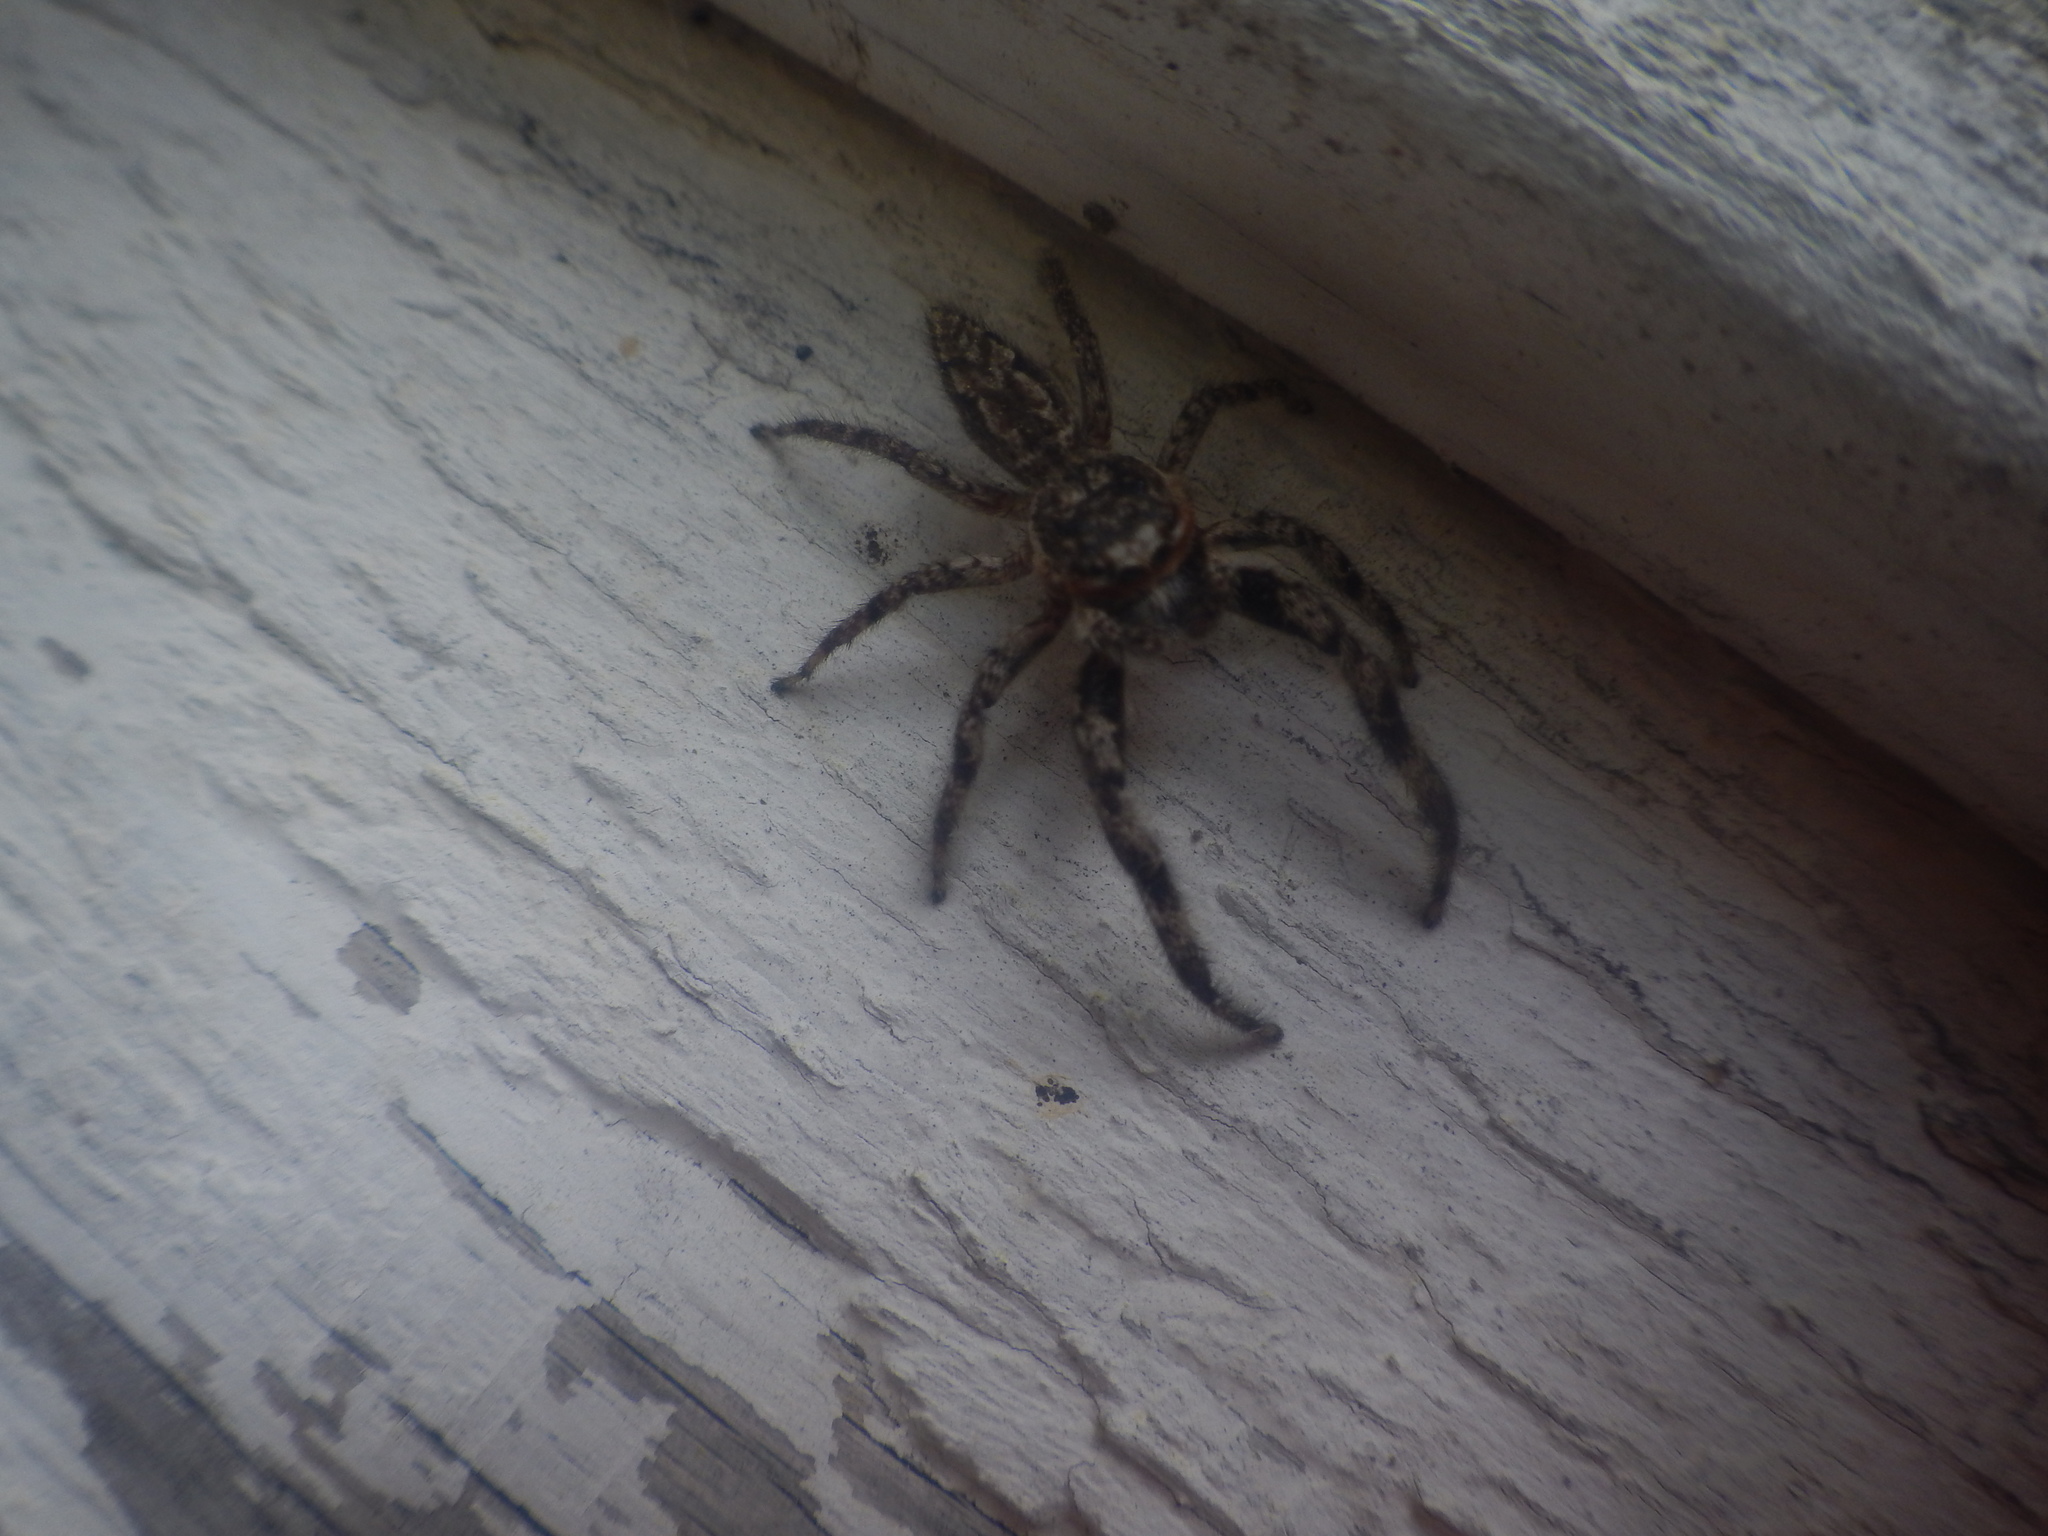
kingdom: Animalia
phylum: Arthropoda
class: Arachnida
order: Araneae
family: Salticidae
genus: Platycryptus
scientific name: Platycryptus undatus
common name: Tan jumping spider
